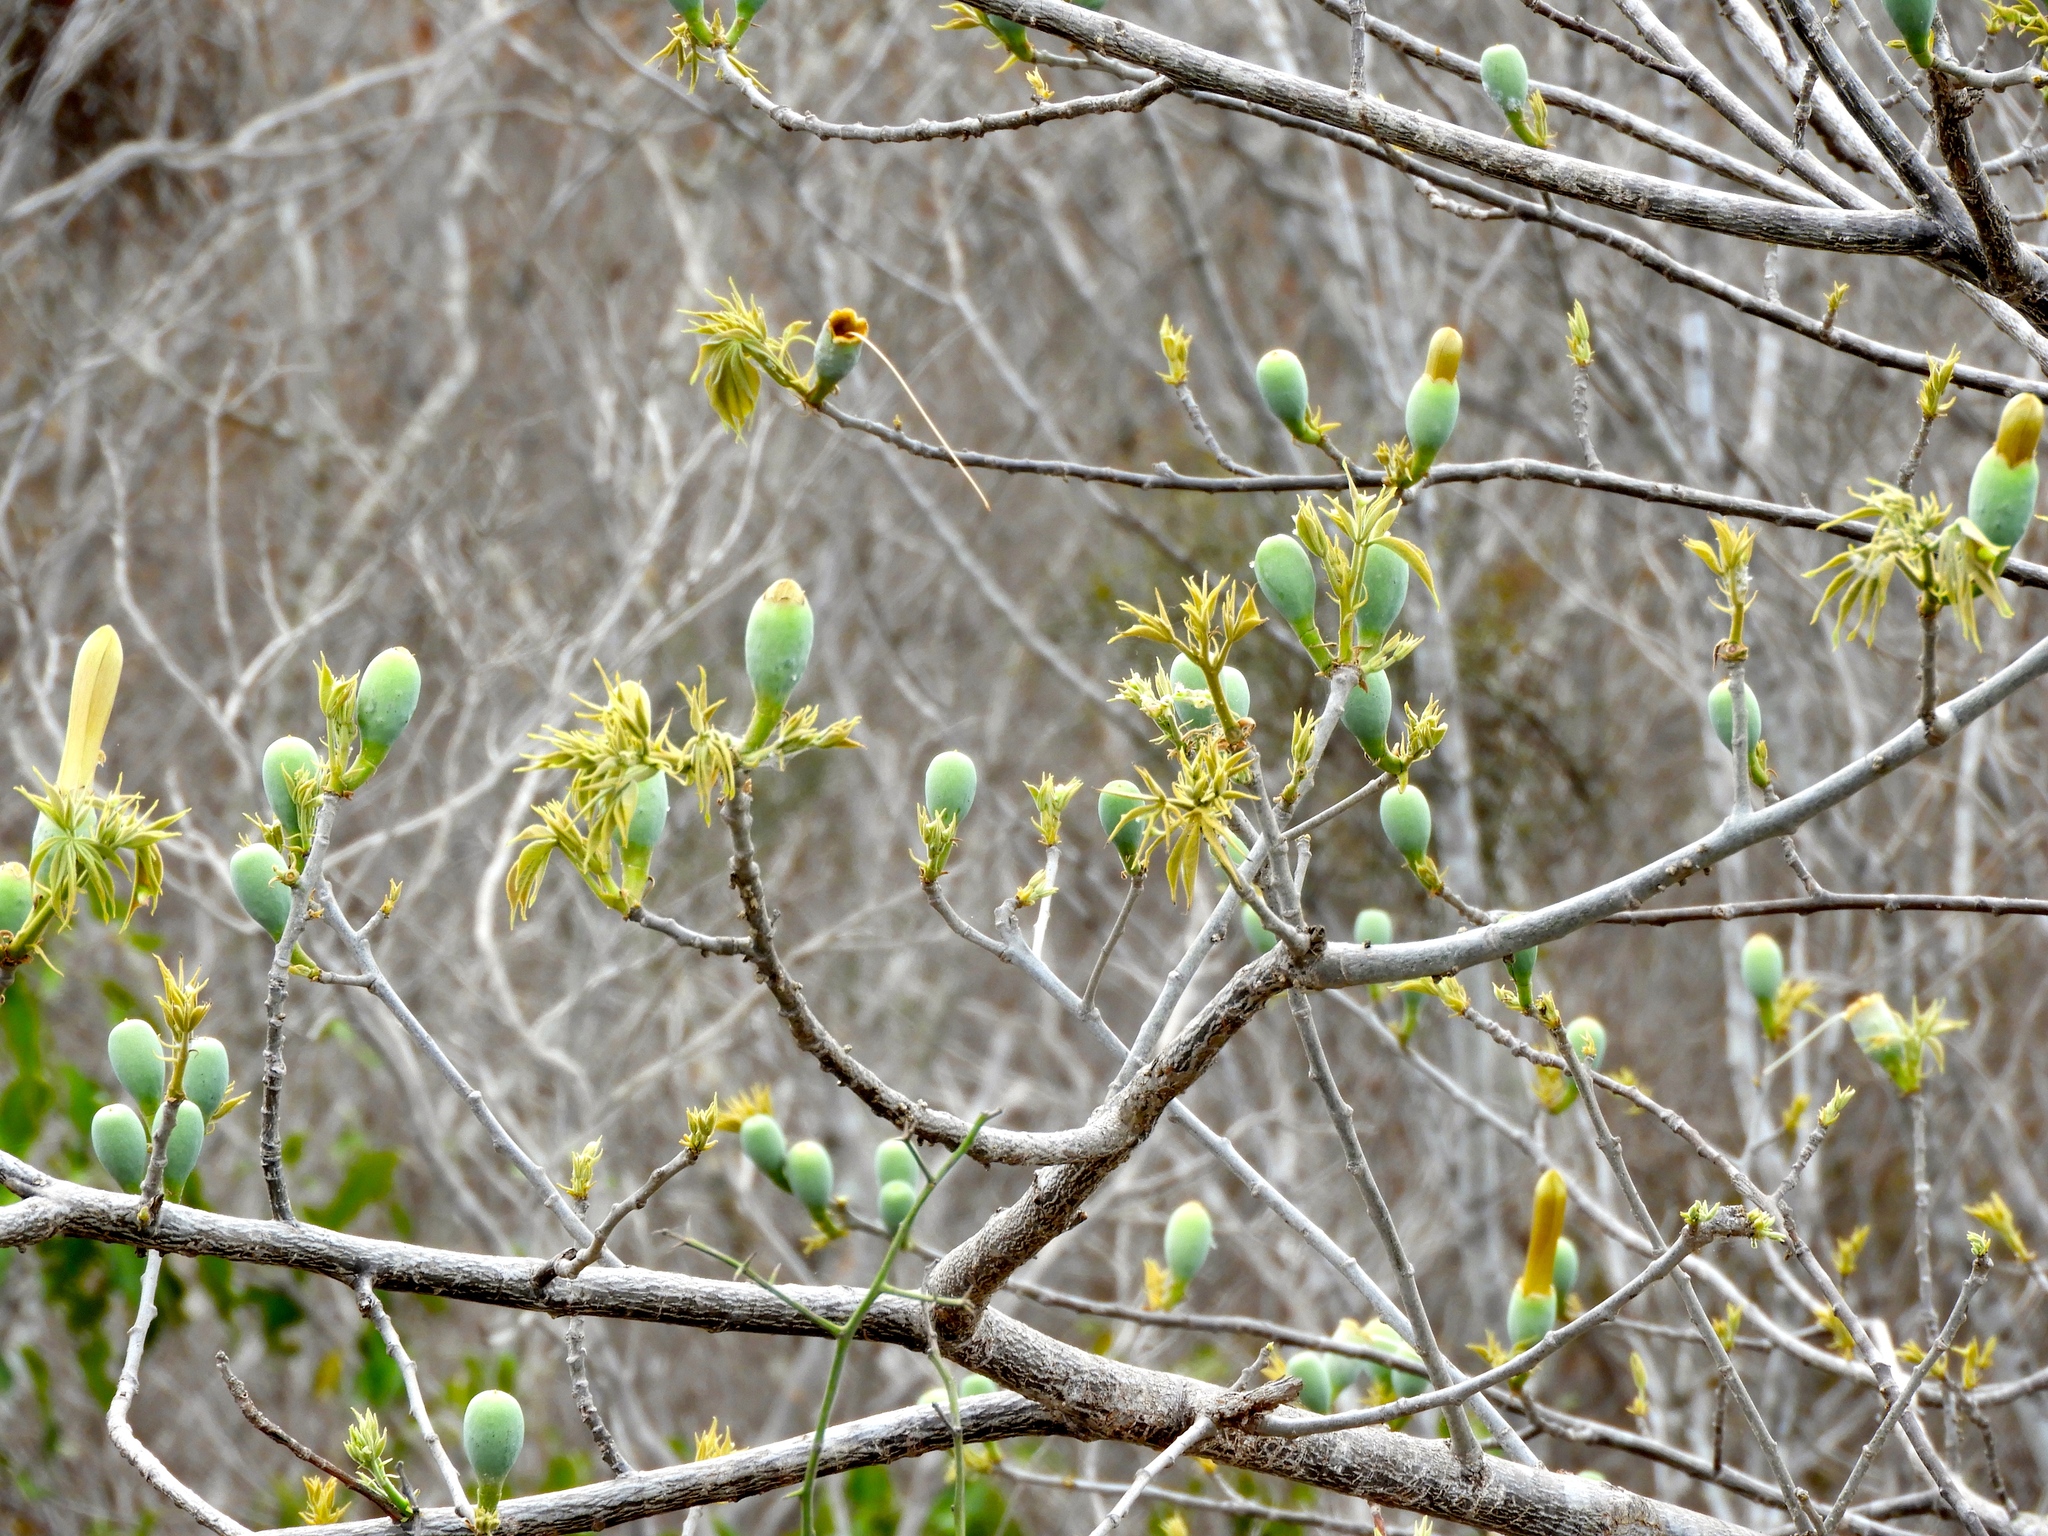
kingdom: Plantae
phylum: Tracheophyta
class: Magnoliopsida
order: Malvales
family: Malvaceae
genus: Ceiba
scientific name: Ceiba aesculifolia
